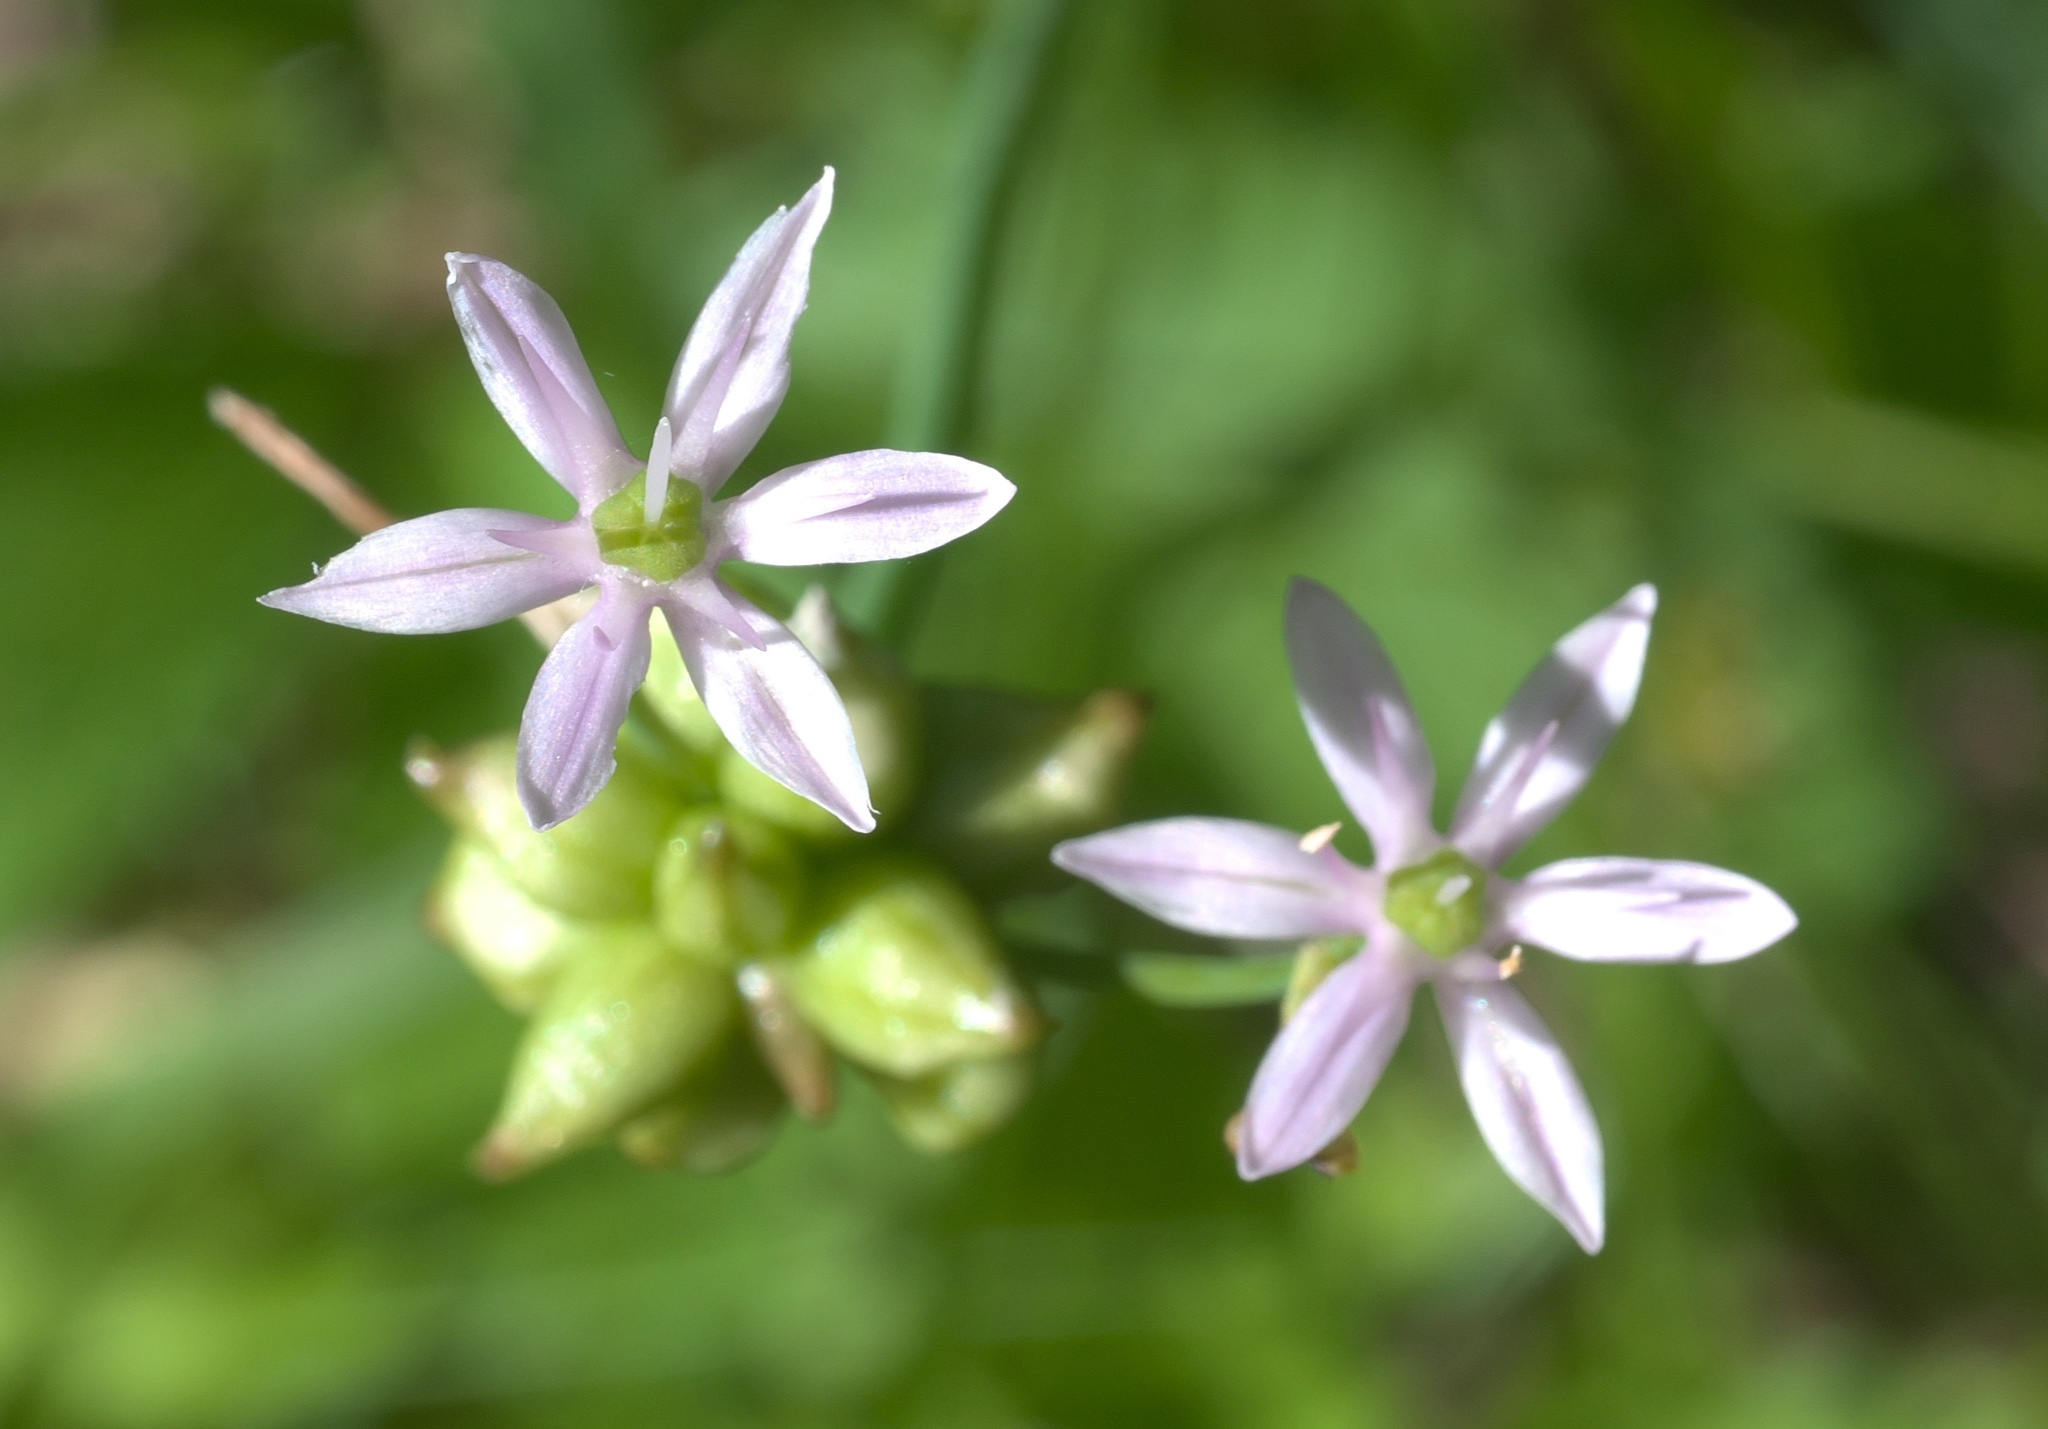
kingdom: Plantae
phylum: Tracheophyta
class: Liliopsida
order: Asparagales
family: Amaryllidaceae
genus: Allium
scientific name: Allium canadense
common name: Meadow garlic
